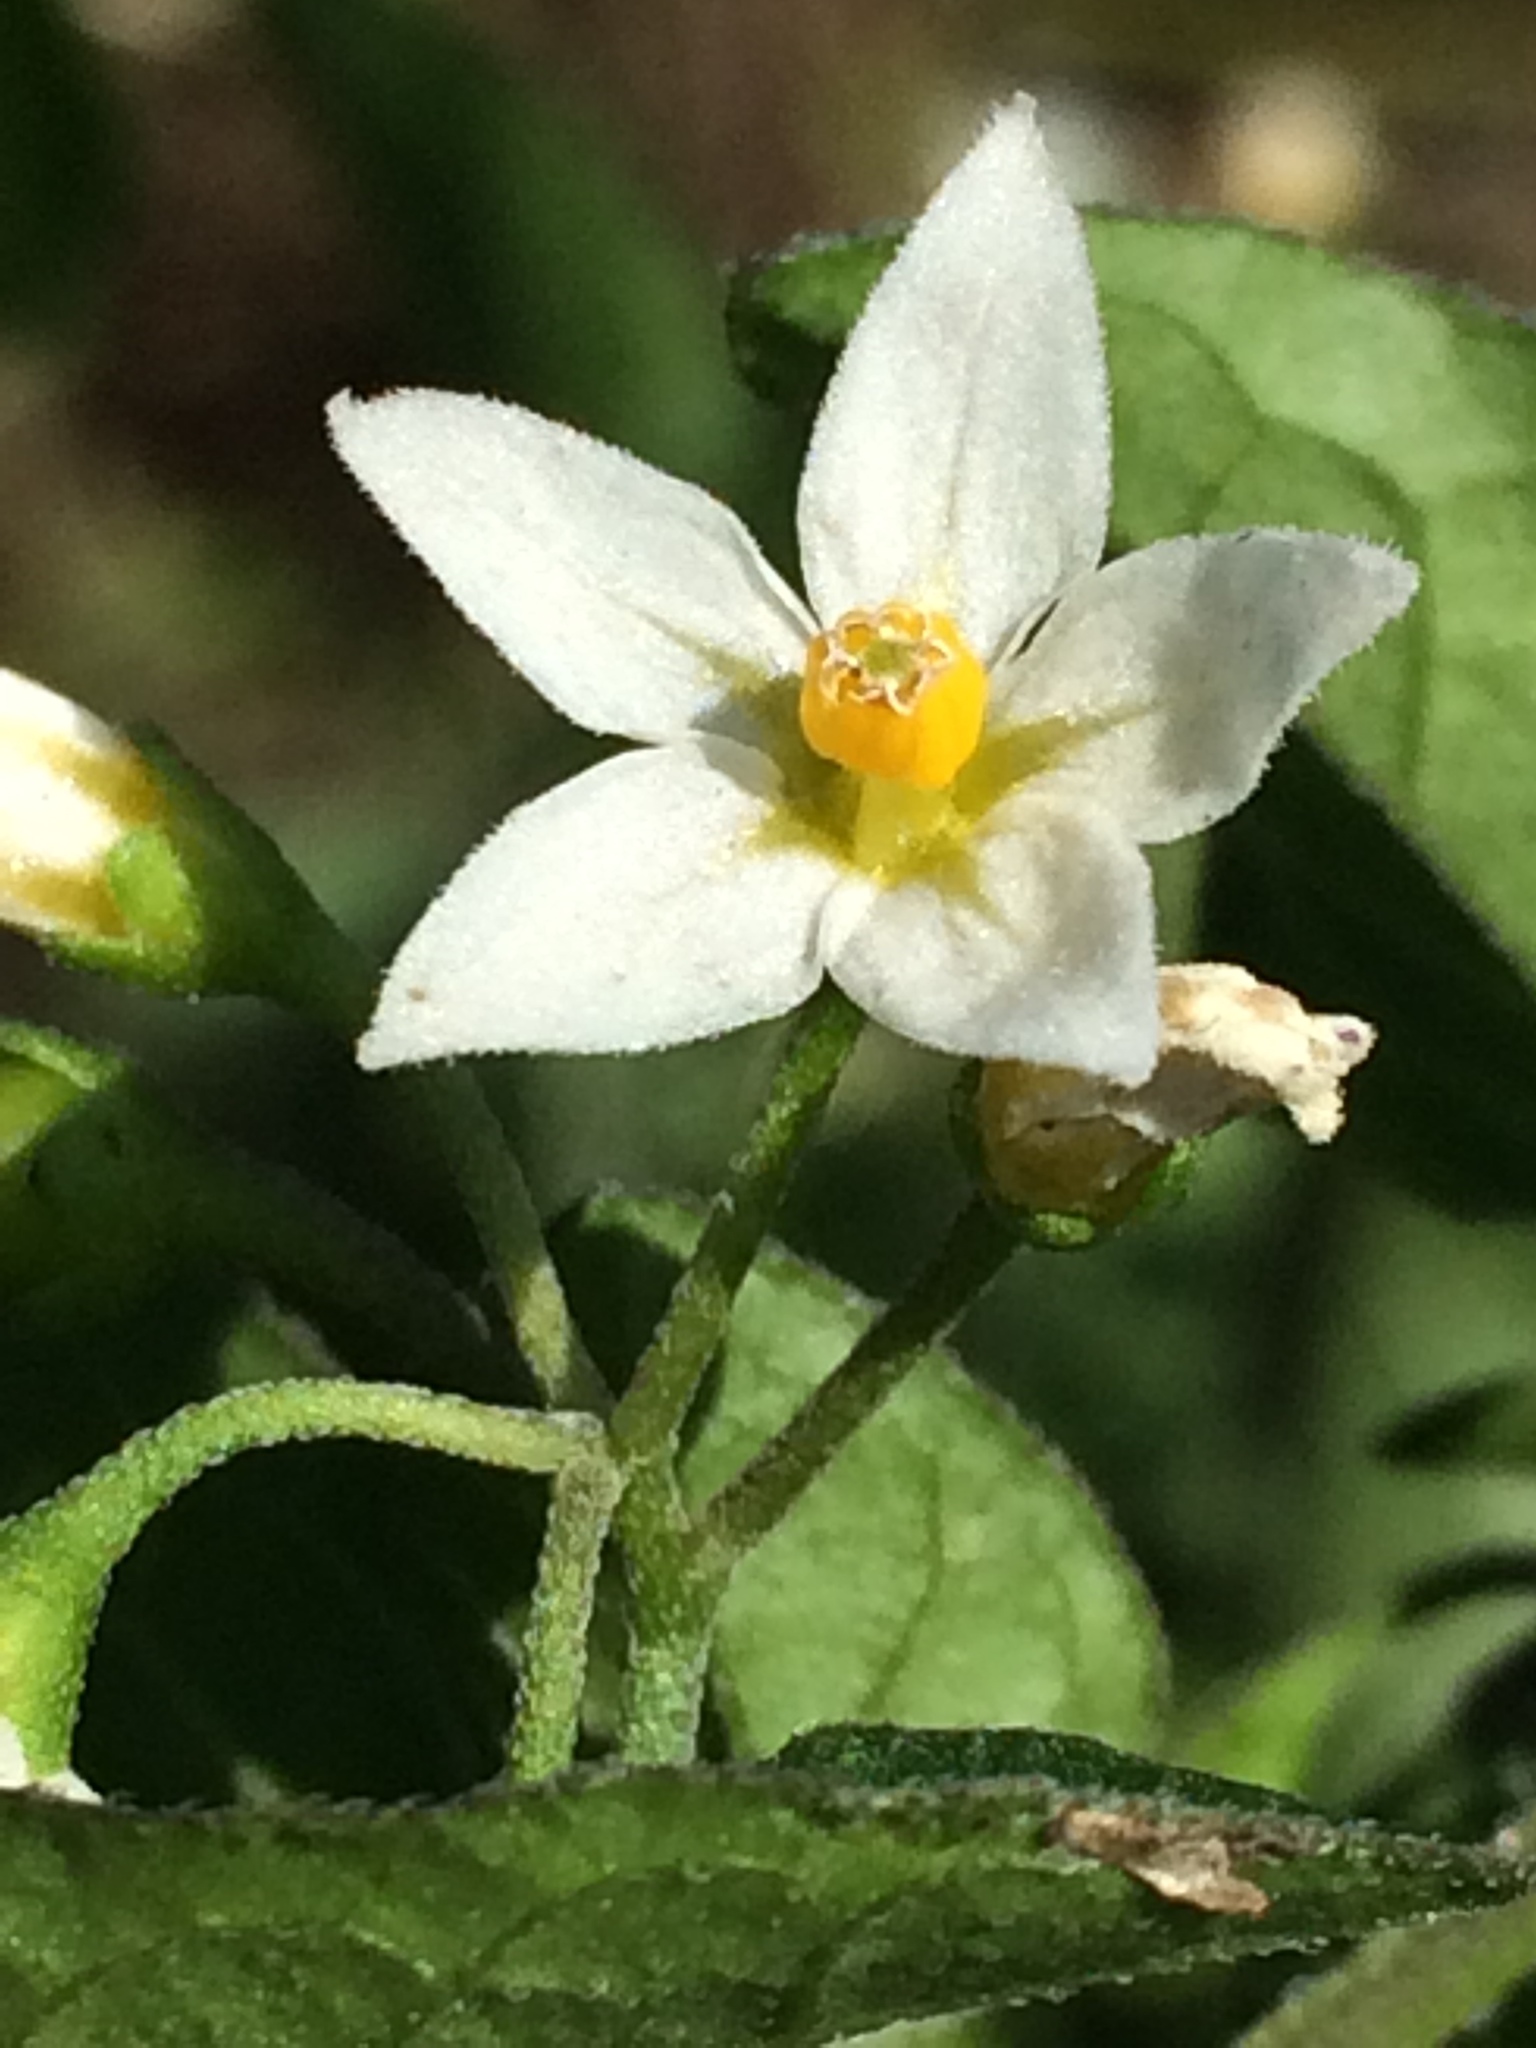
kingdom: Plantae
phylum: Tracheophyta
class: Magnoliopsida
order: Solanales
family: Solanaceae
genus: Solanum
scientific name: Solanum nigrum
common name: Black nightshade
